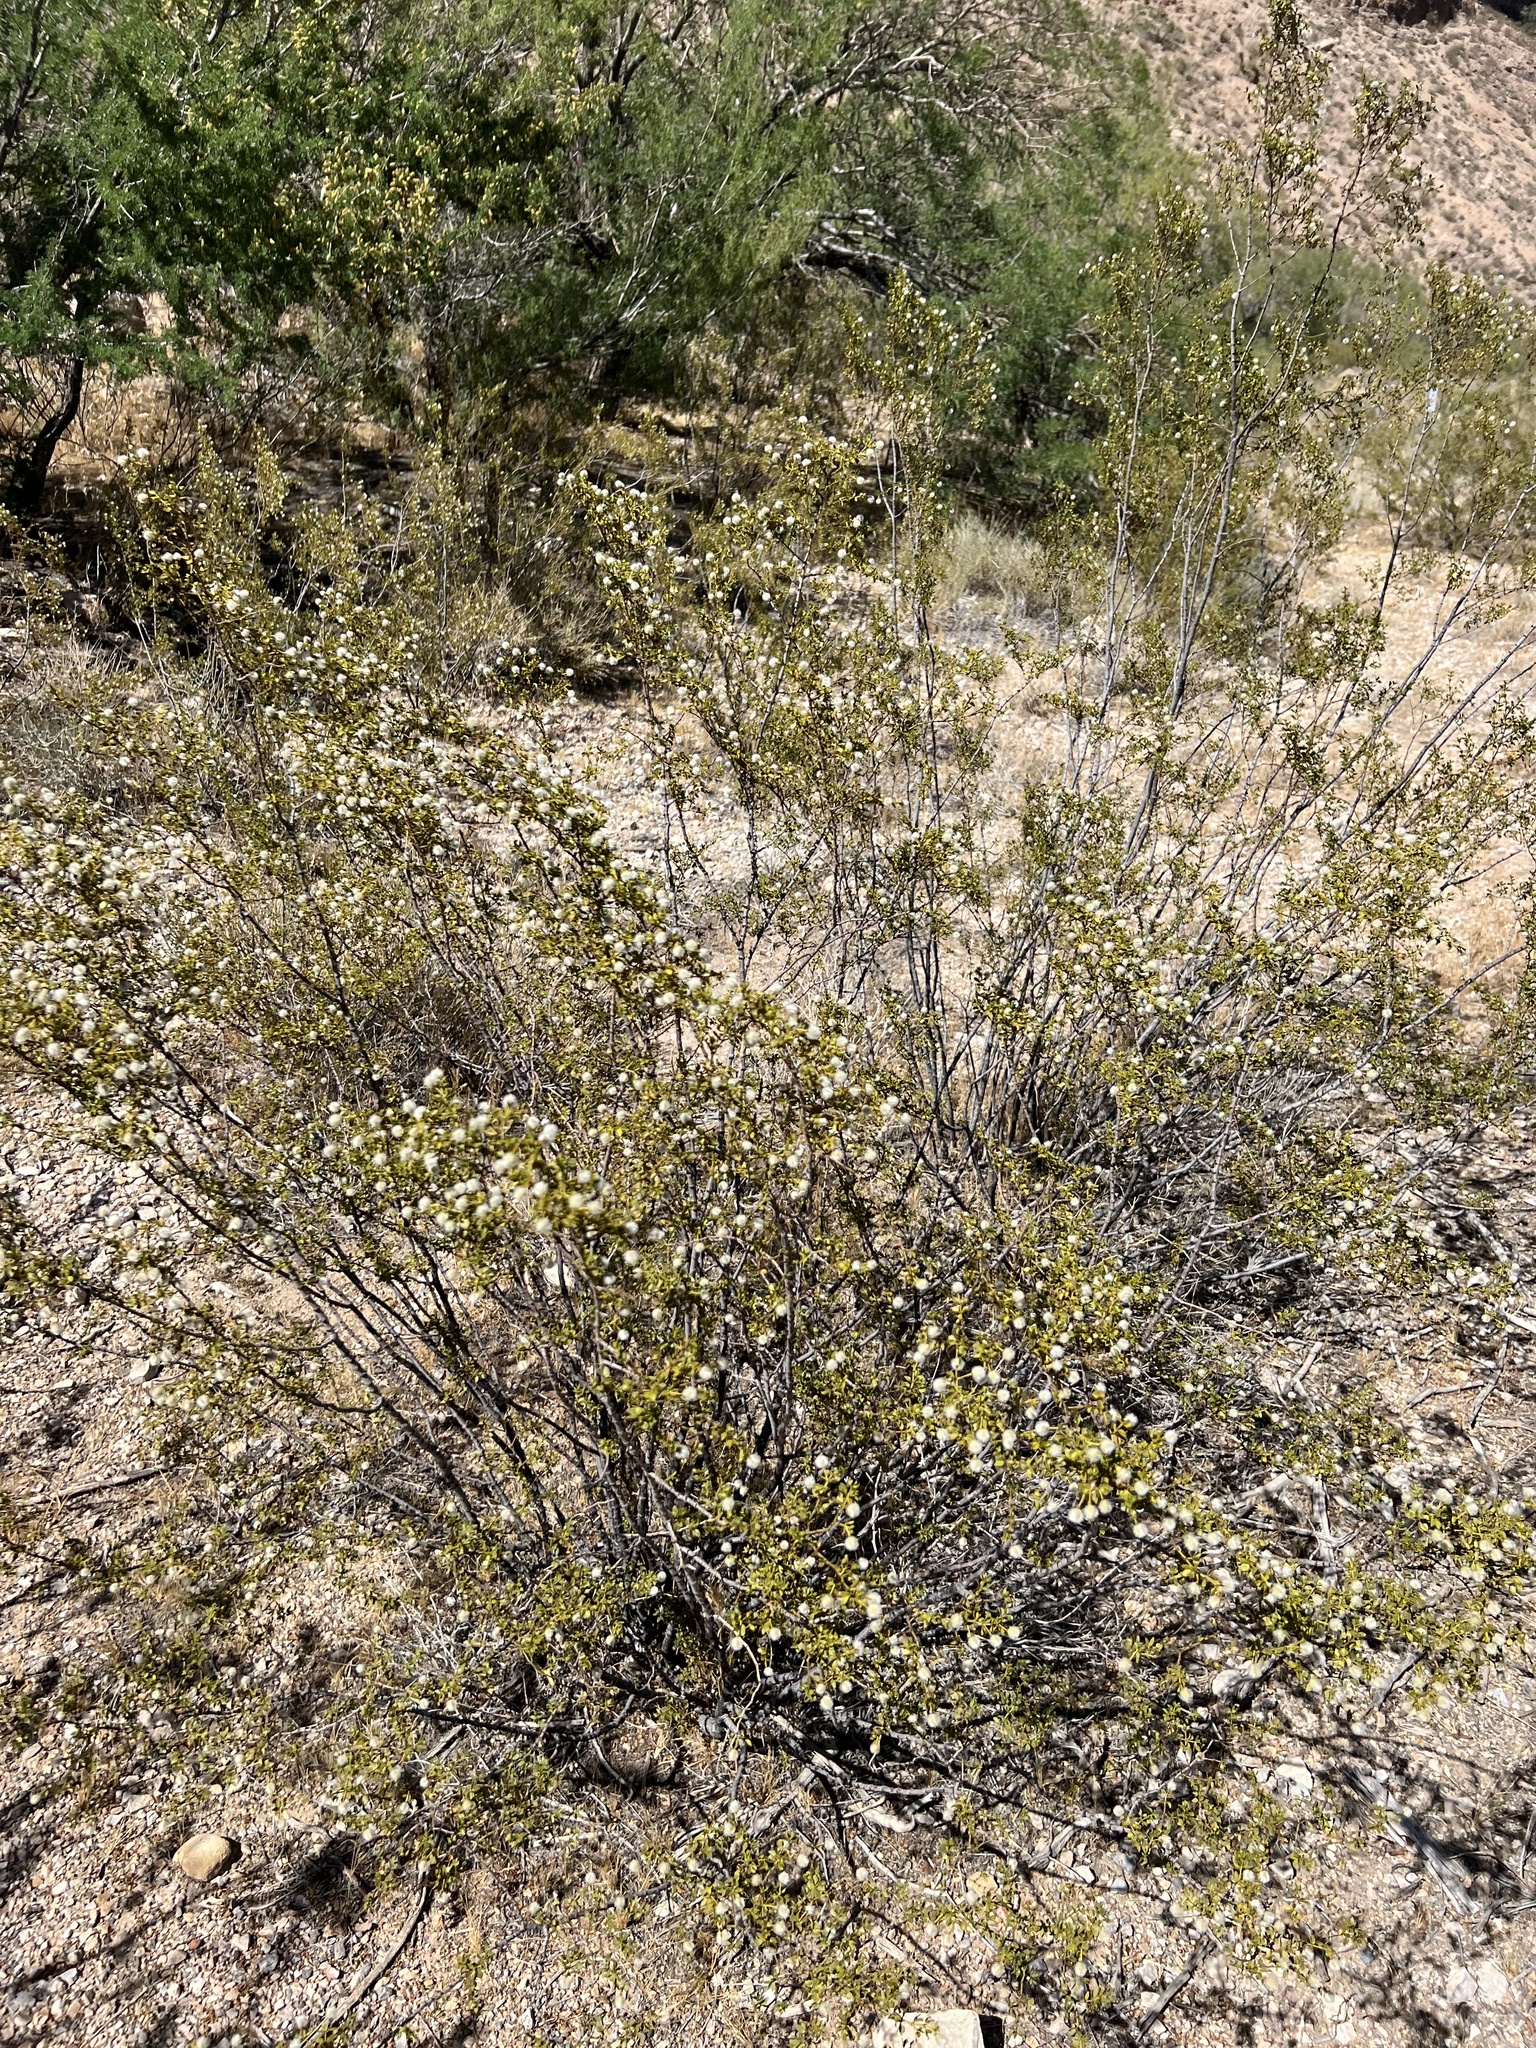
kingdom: Plantae
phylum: Tracheophyta
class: Magnoliopsida
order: Zygophyllales
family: Zygophyllaceae
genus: Larrea
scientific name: Larrea tridentata
